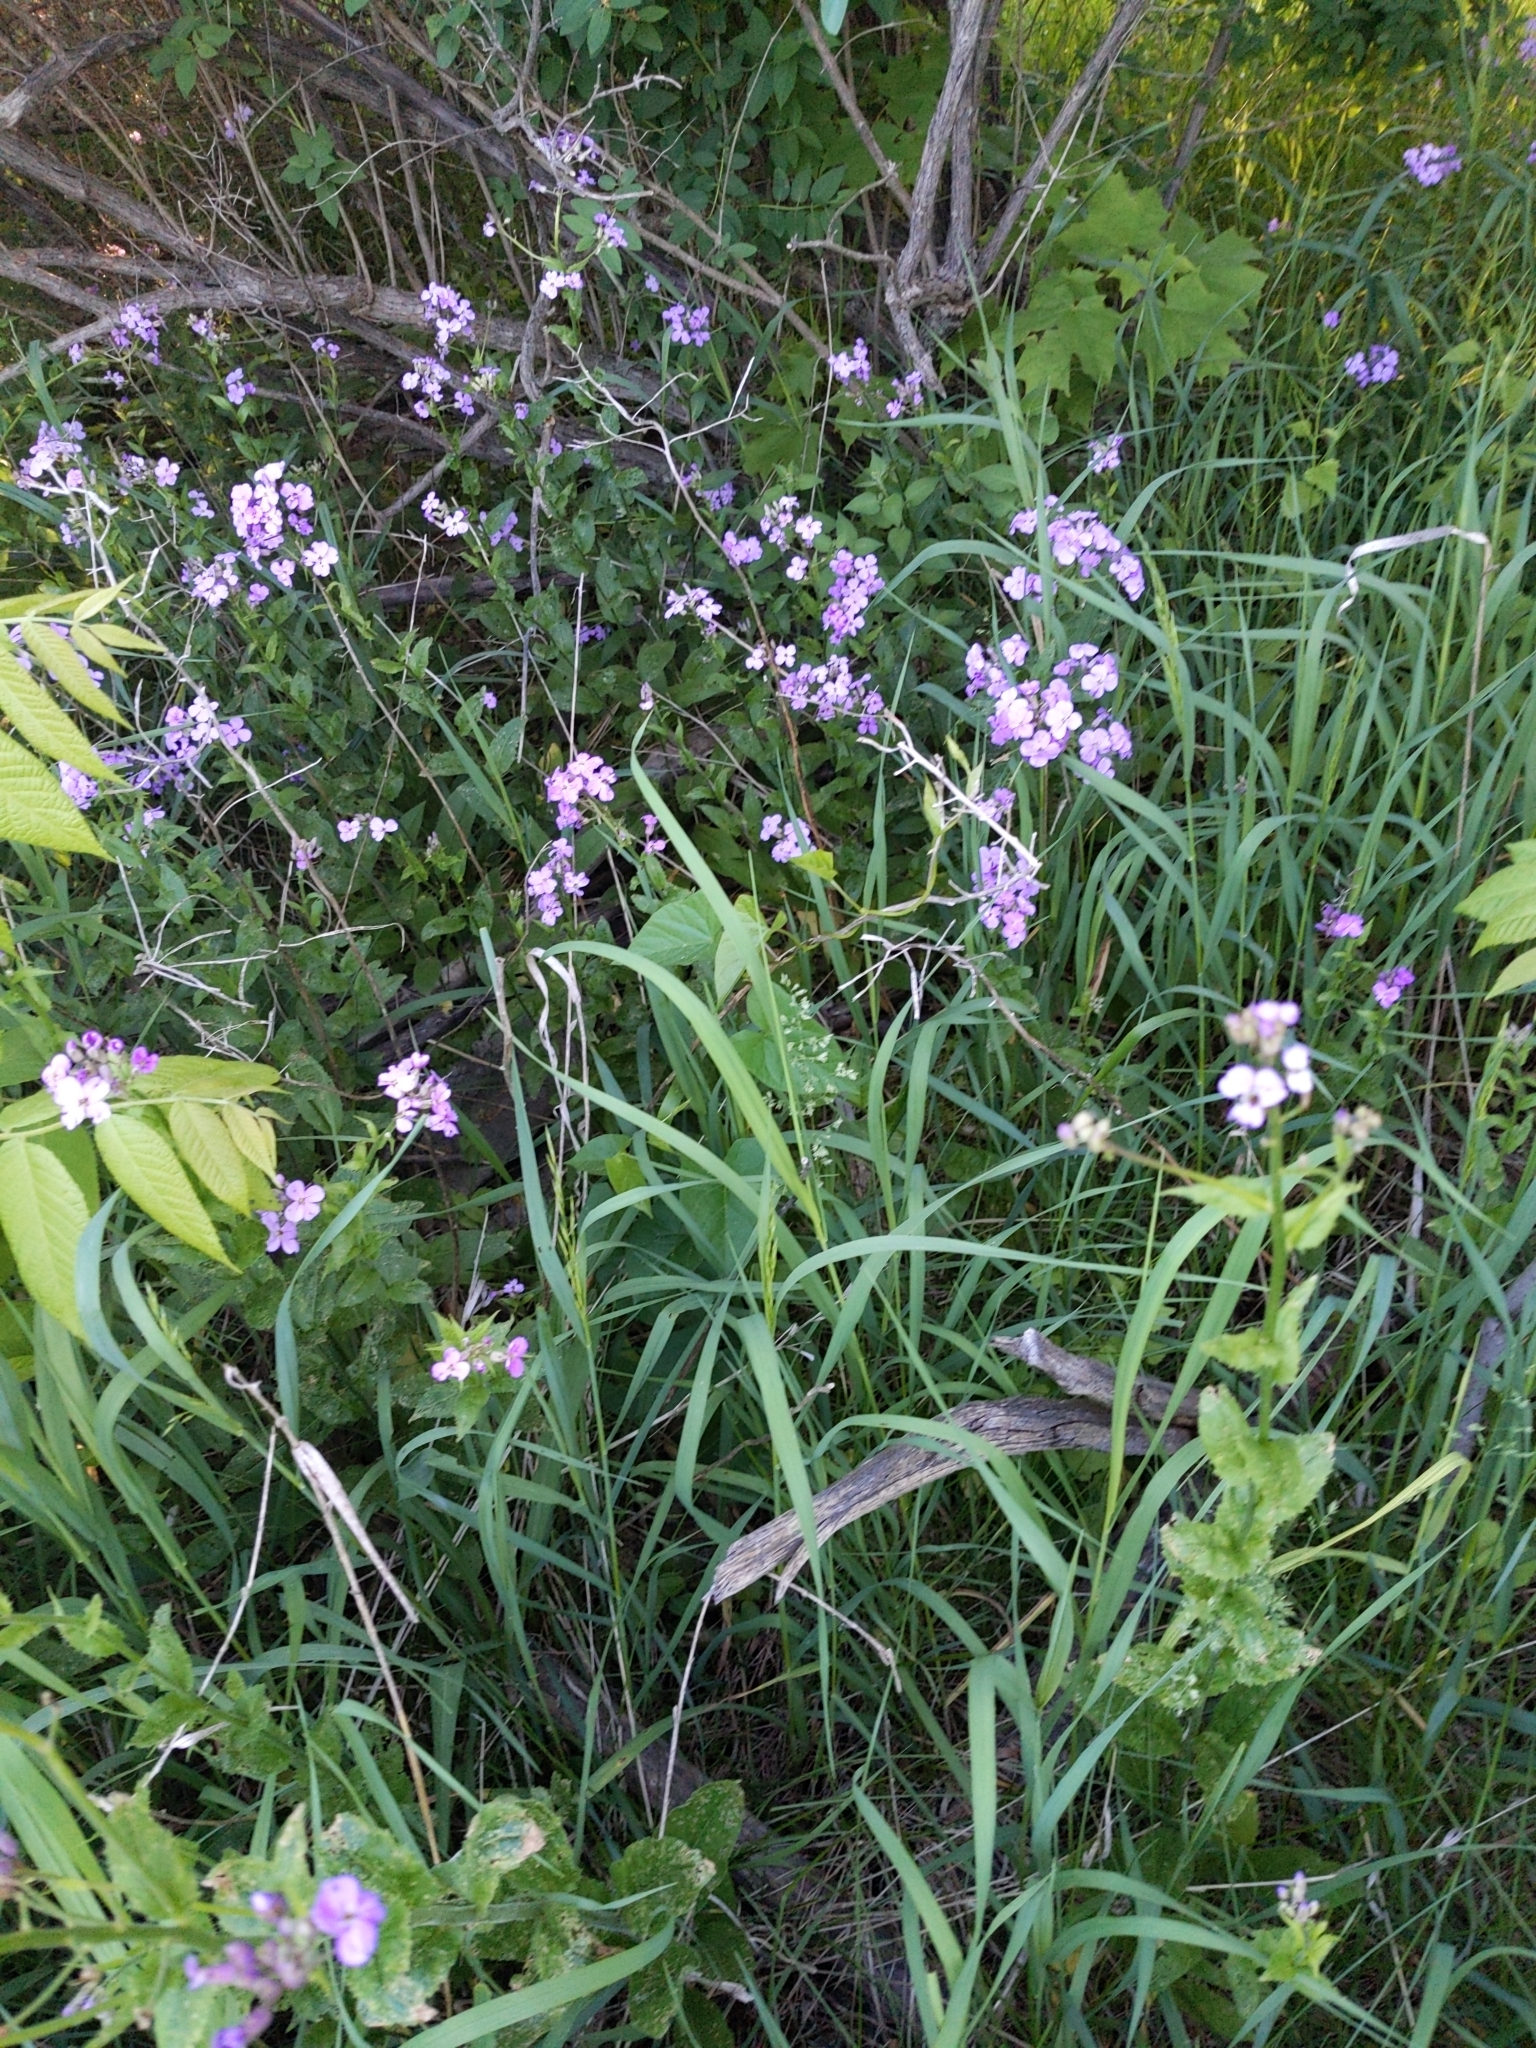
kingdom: Plantae
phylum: Tracheophyta
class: Magnoliopsida
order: Brassicales
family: Brassicaceae
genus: Hesperis
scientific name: Hesperis matronalis
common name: Dame's-violet
